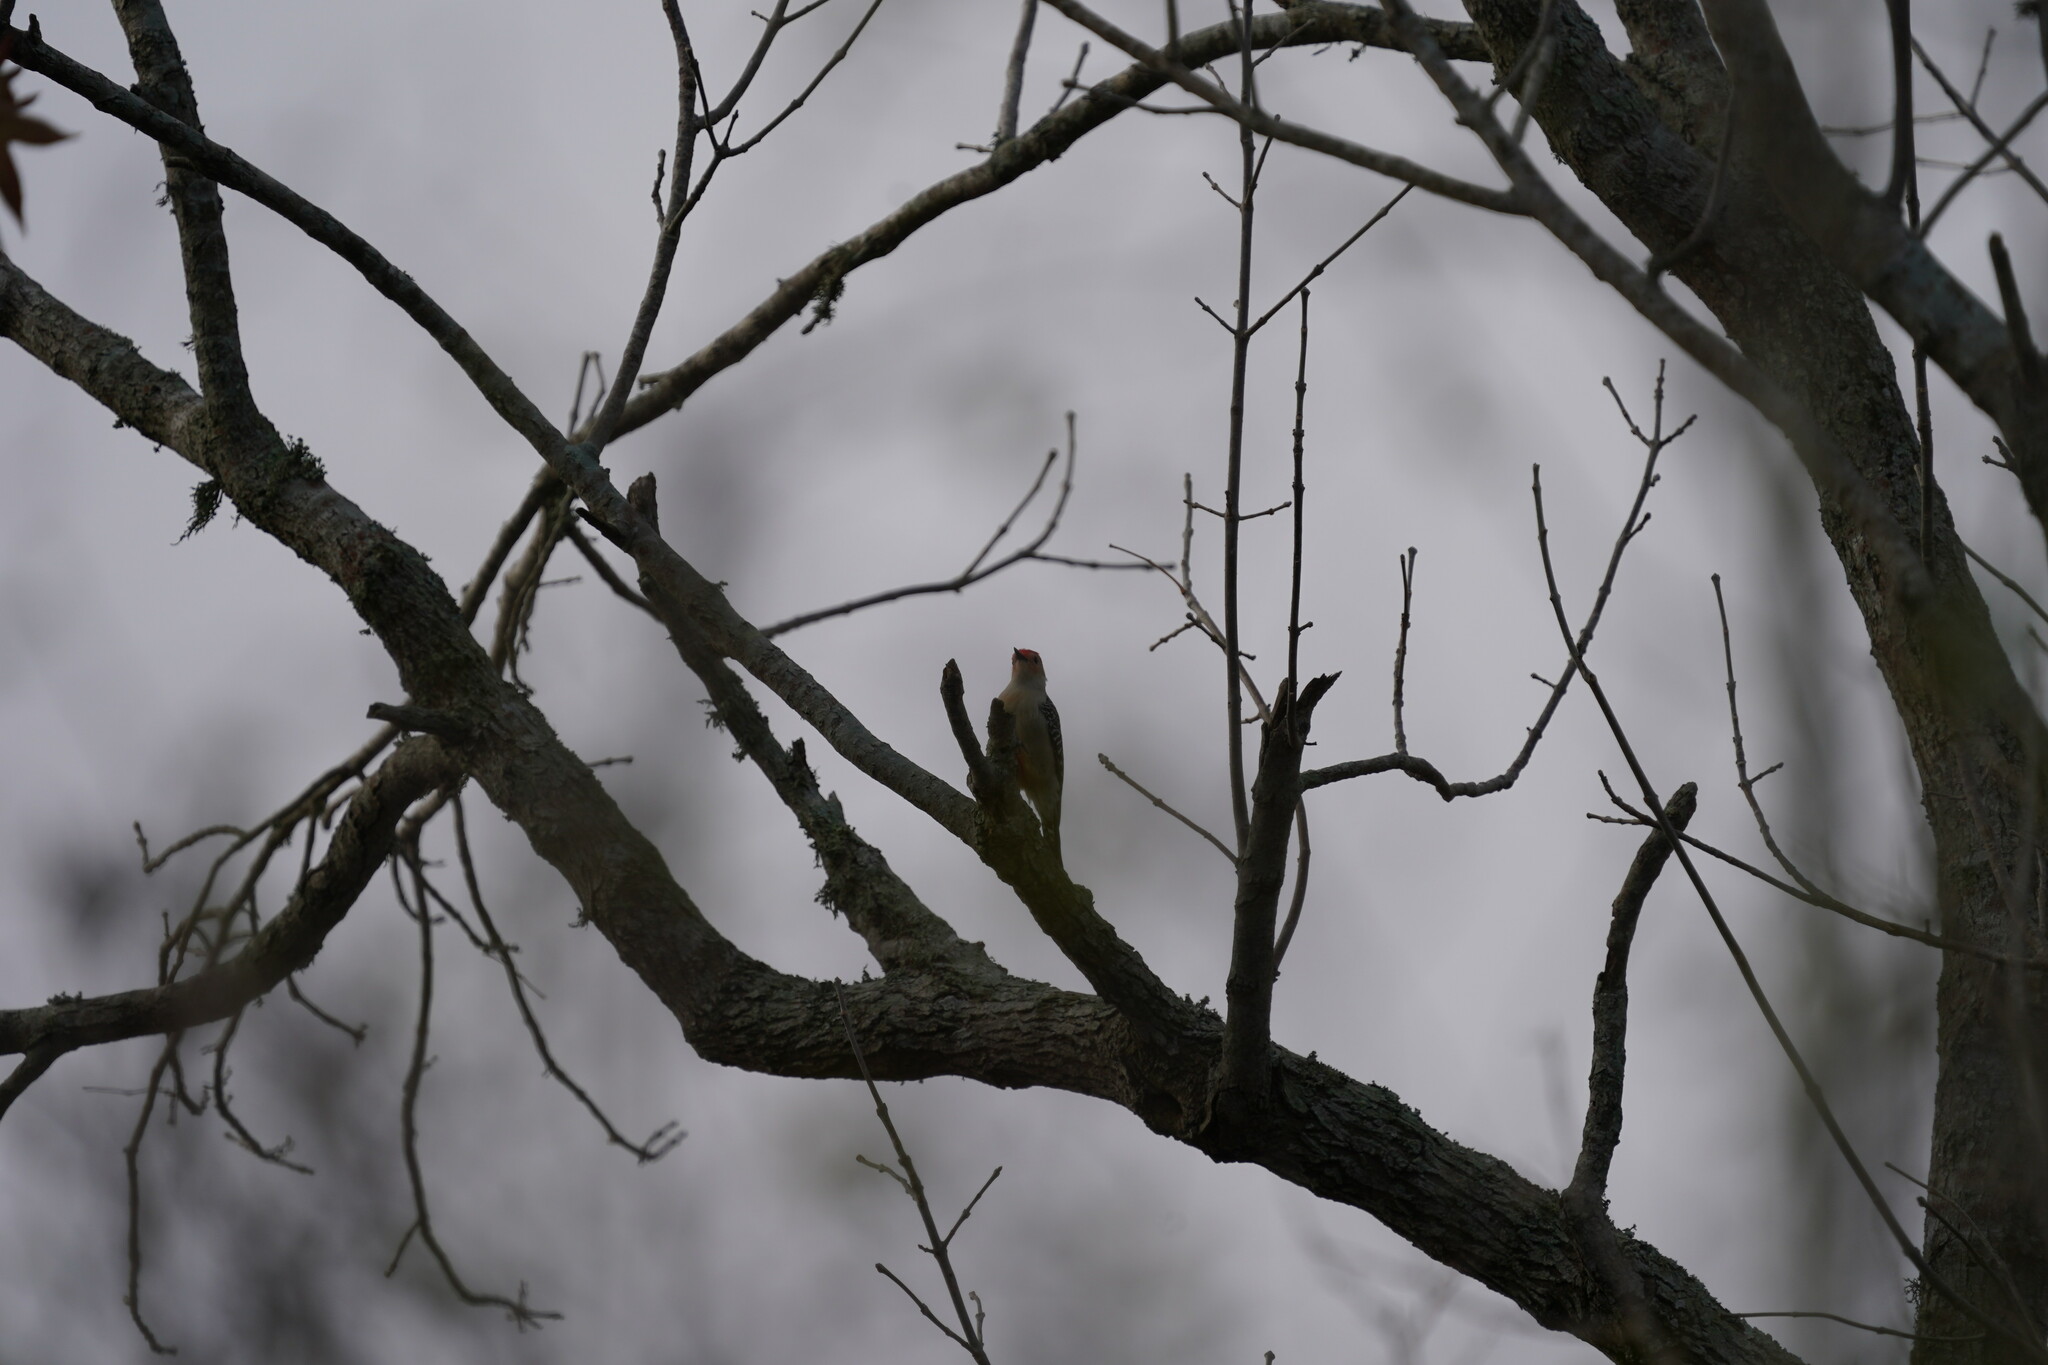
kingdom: Animalia
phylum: Chordata
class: Aves
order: Piciformes
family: Picidae
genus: Melanerpes
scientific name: Melanerpes carolinus
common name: Red-bellied woodpecker
